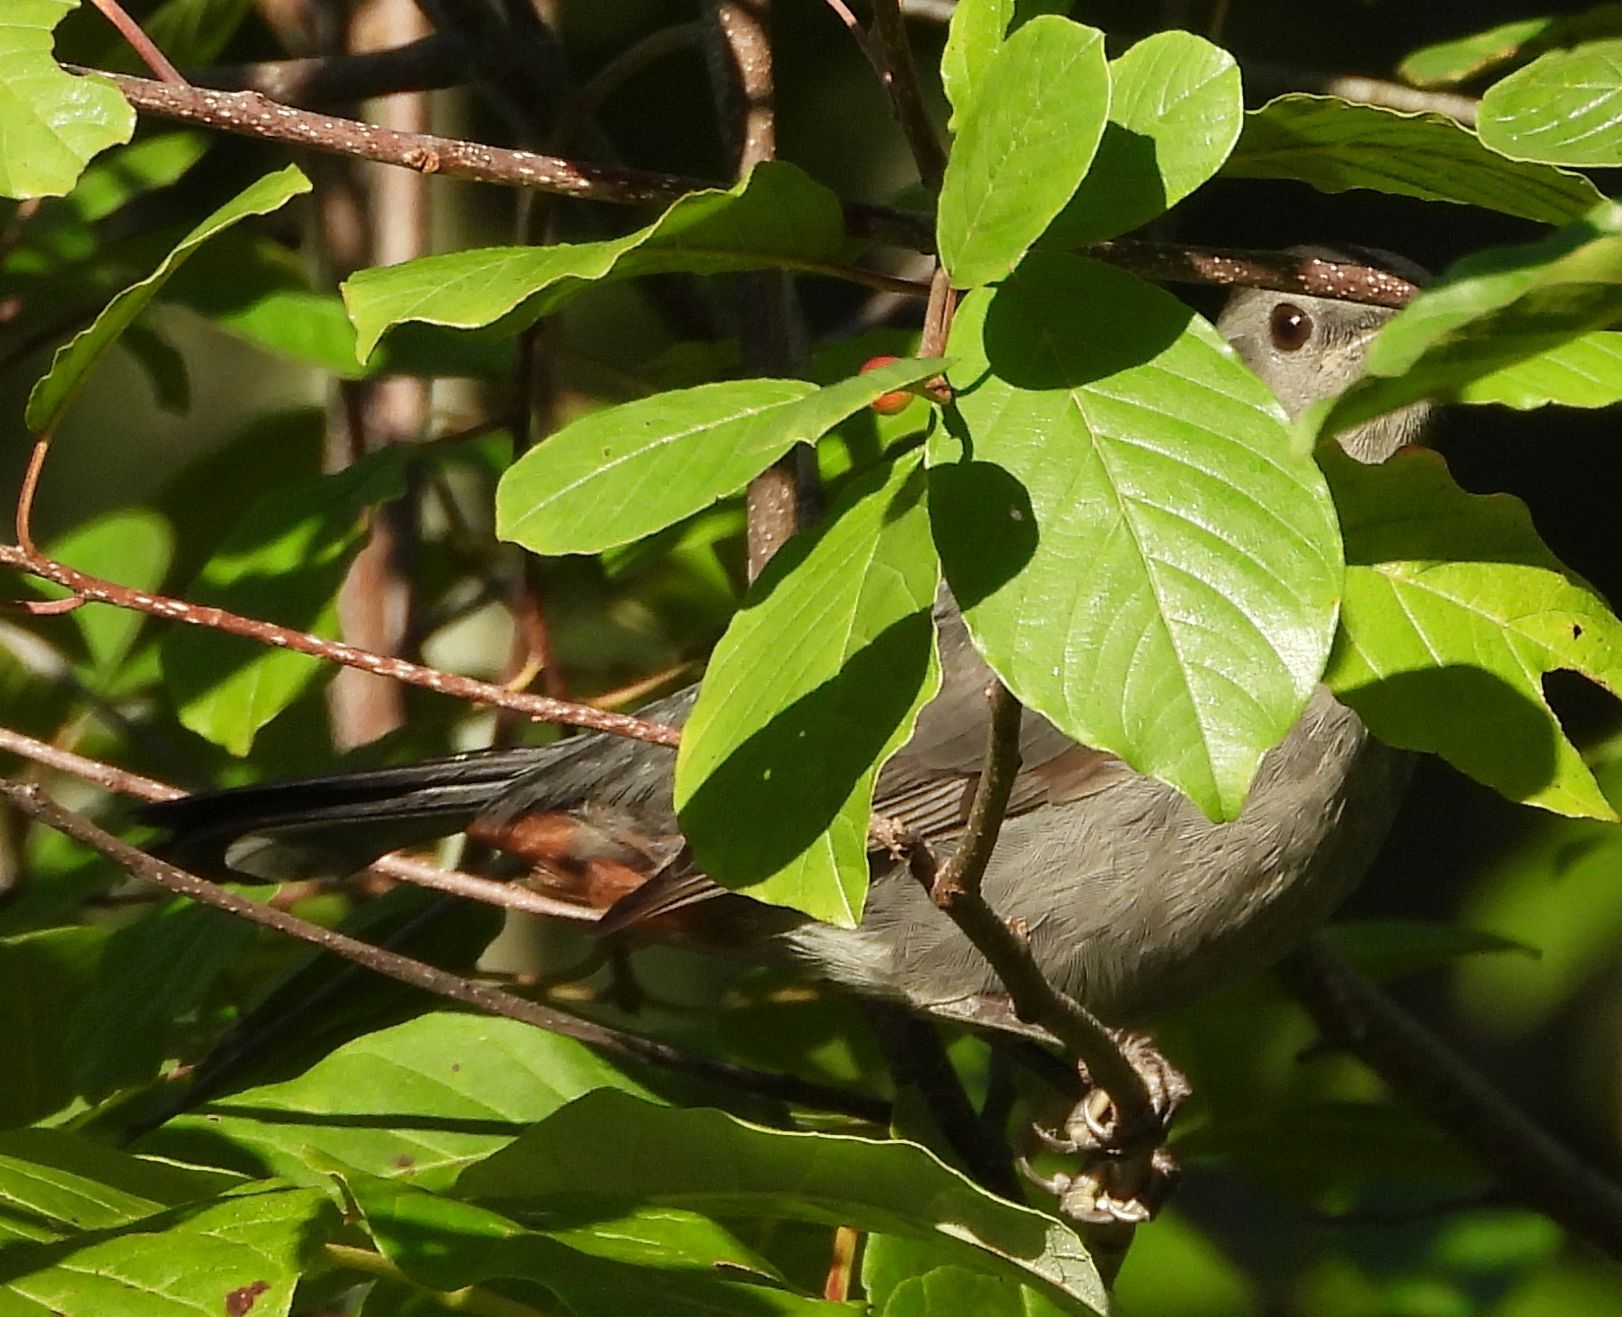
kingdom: Animalia
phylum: Chordata
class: Aves
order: Passeriformes
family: Mimidae
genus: Dumetella
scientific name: Dumetella carolinensis
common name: Gray catbird
